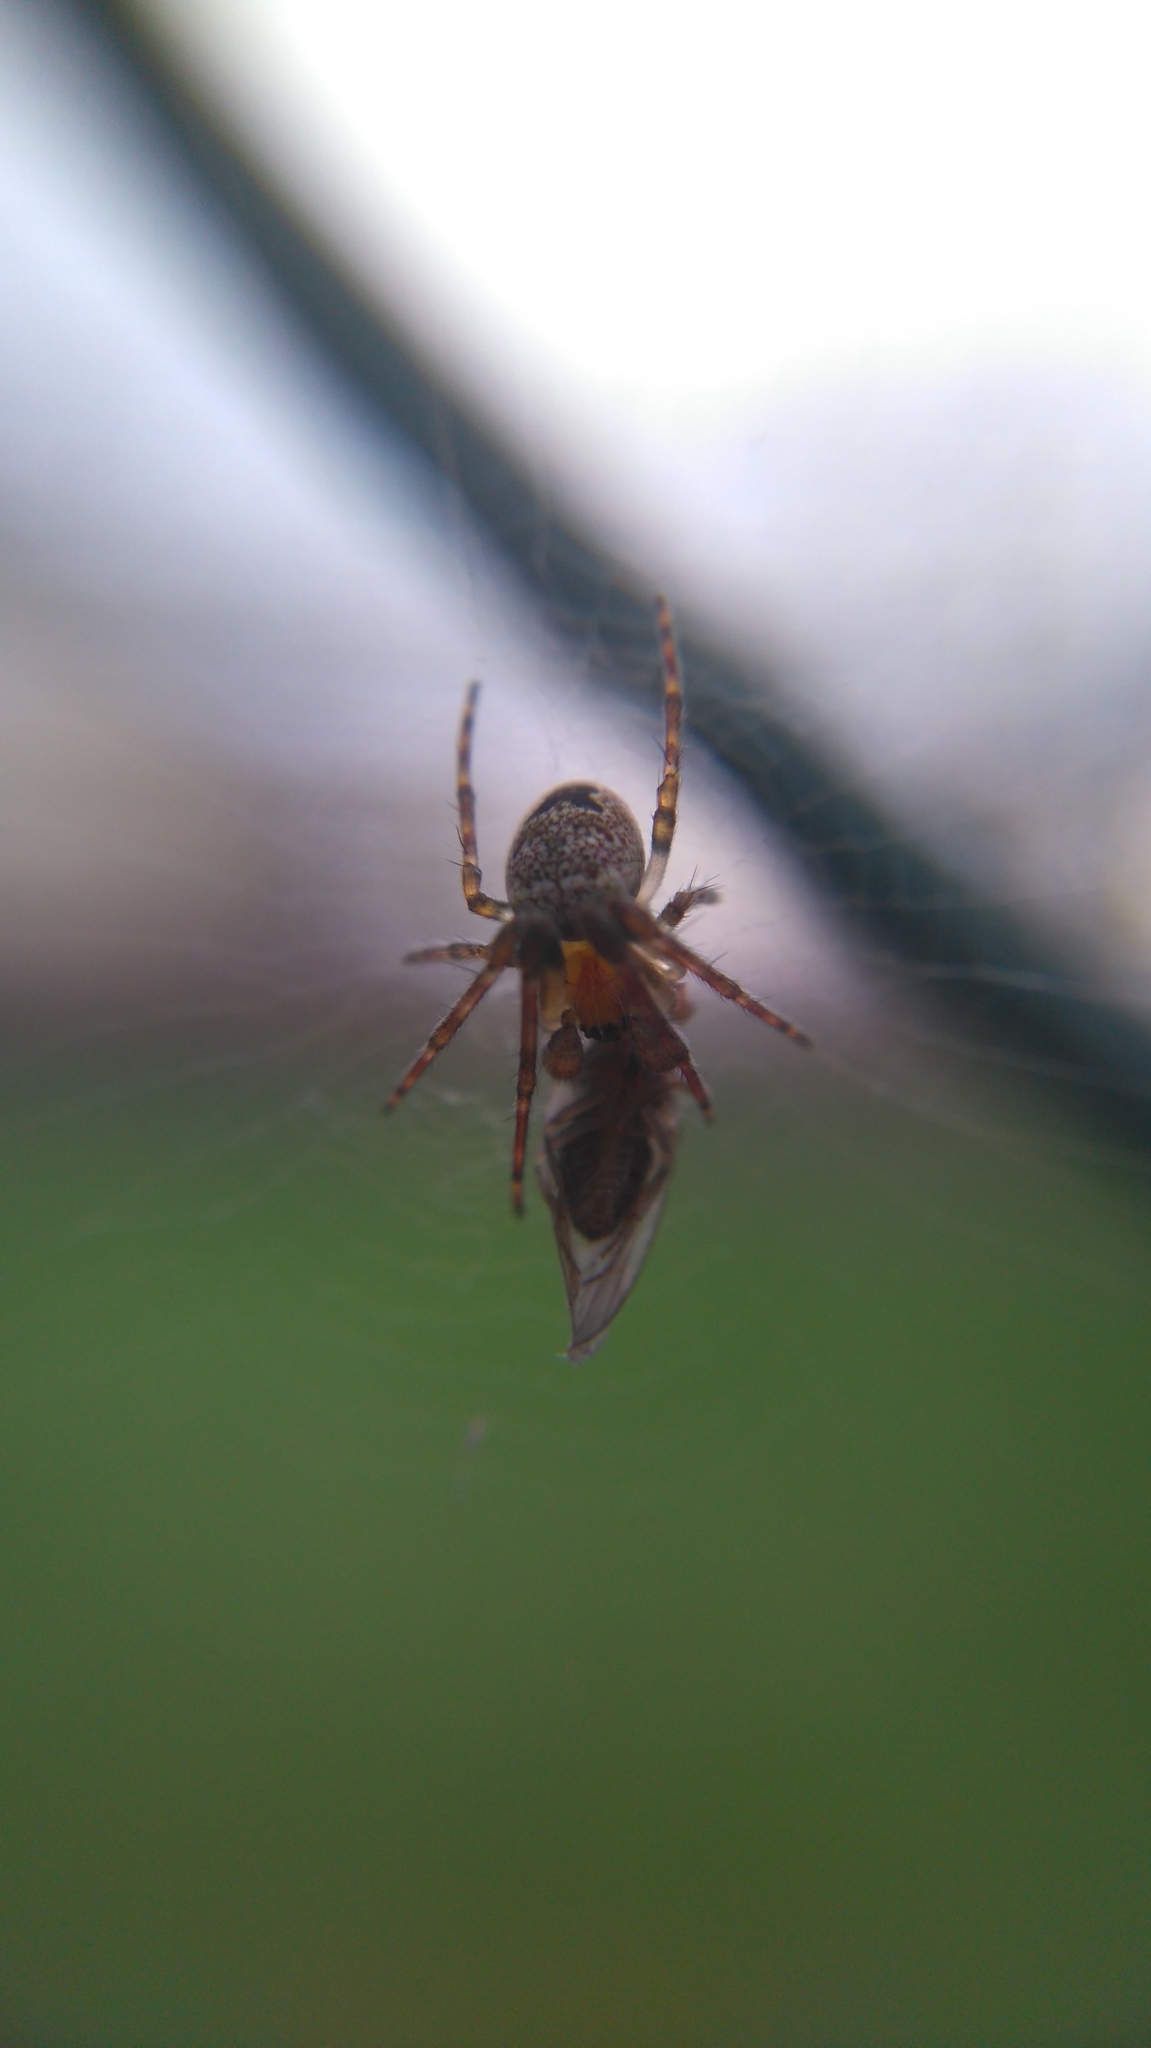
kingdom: Animalia
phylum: Arthropoda
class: Arachnida
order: Araneae
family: Araneidae
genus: Zilla
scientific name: Zilla diodia
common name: Zilla diodia
